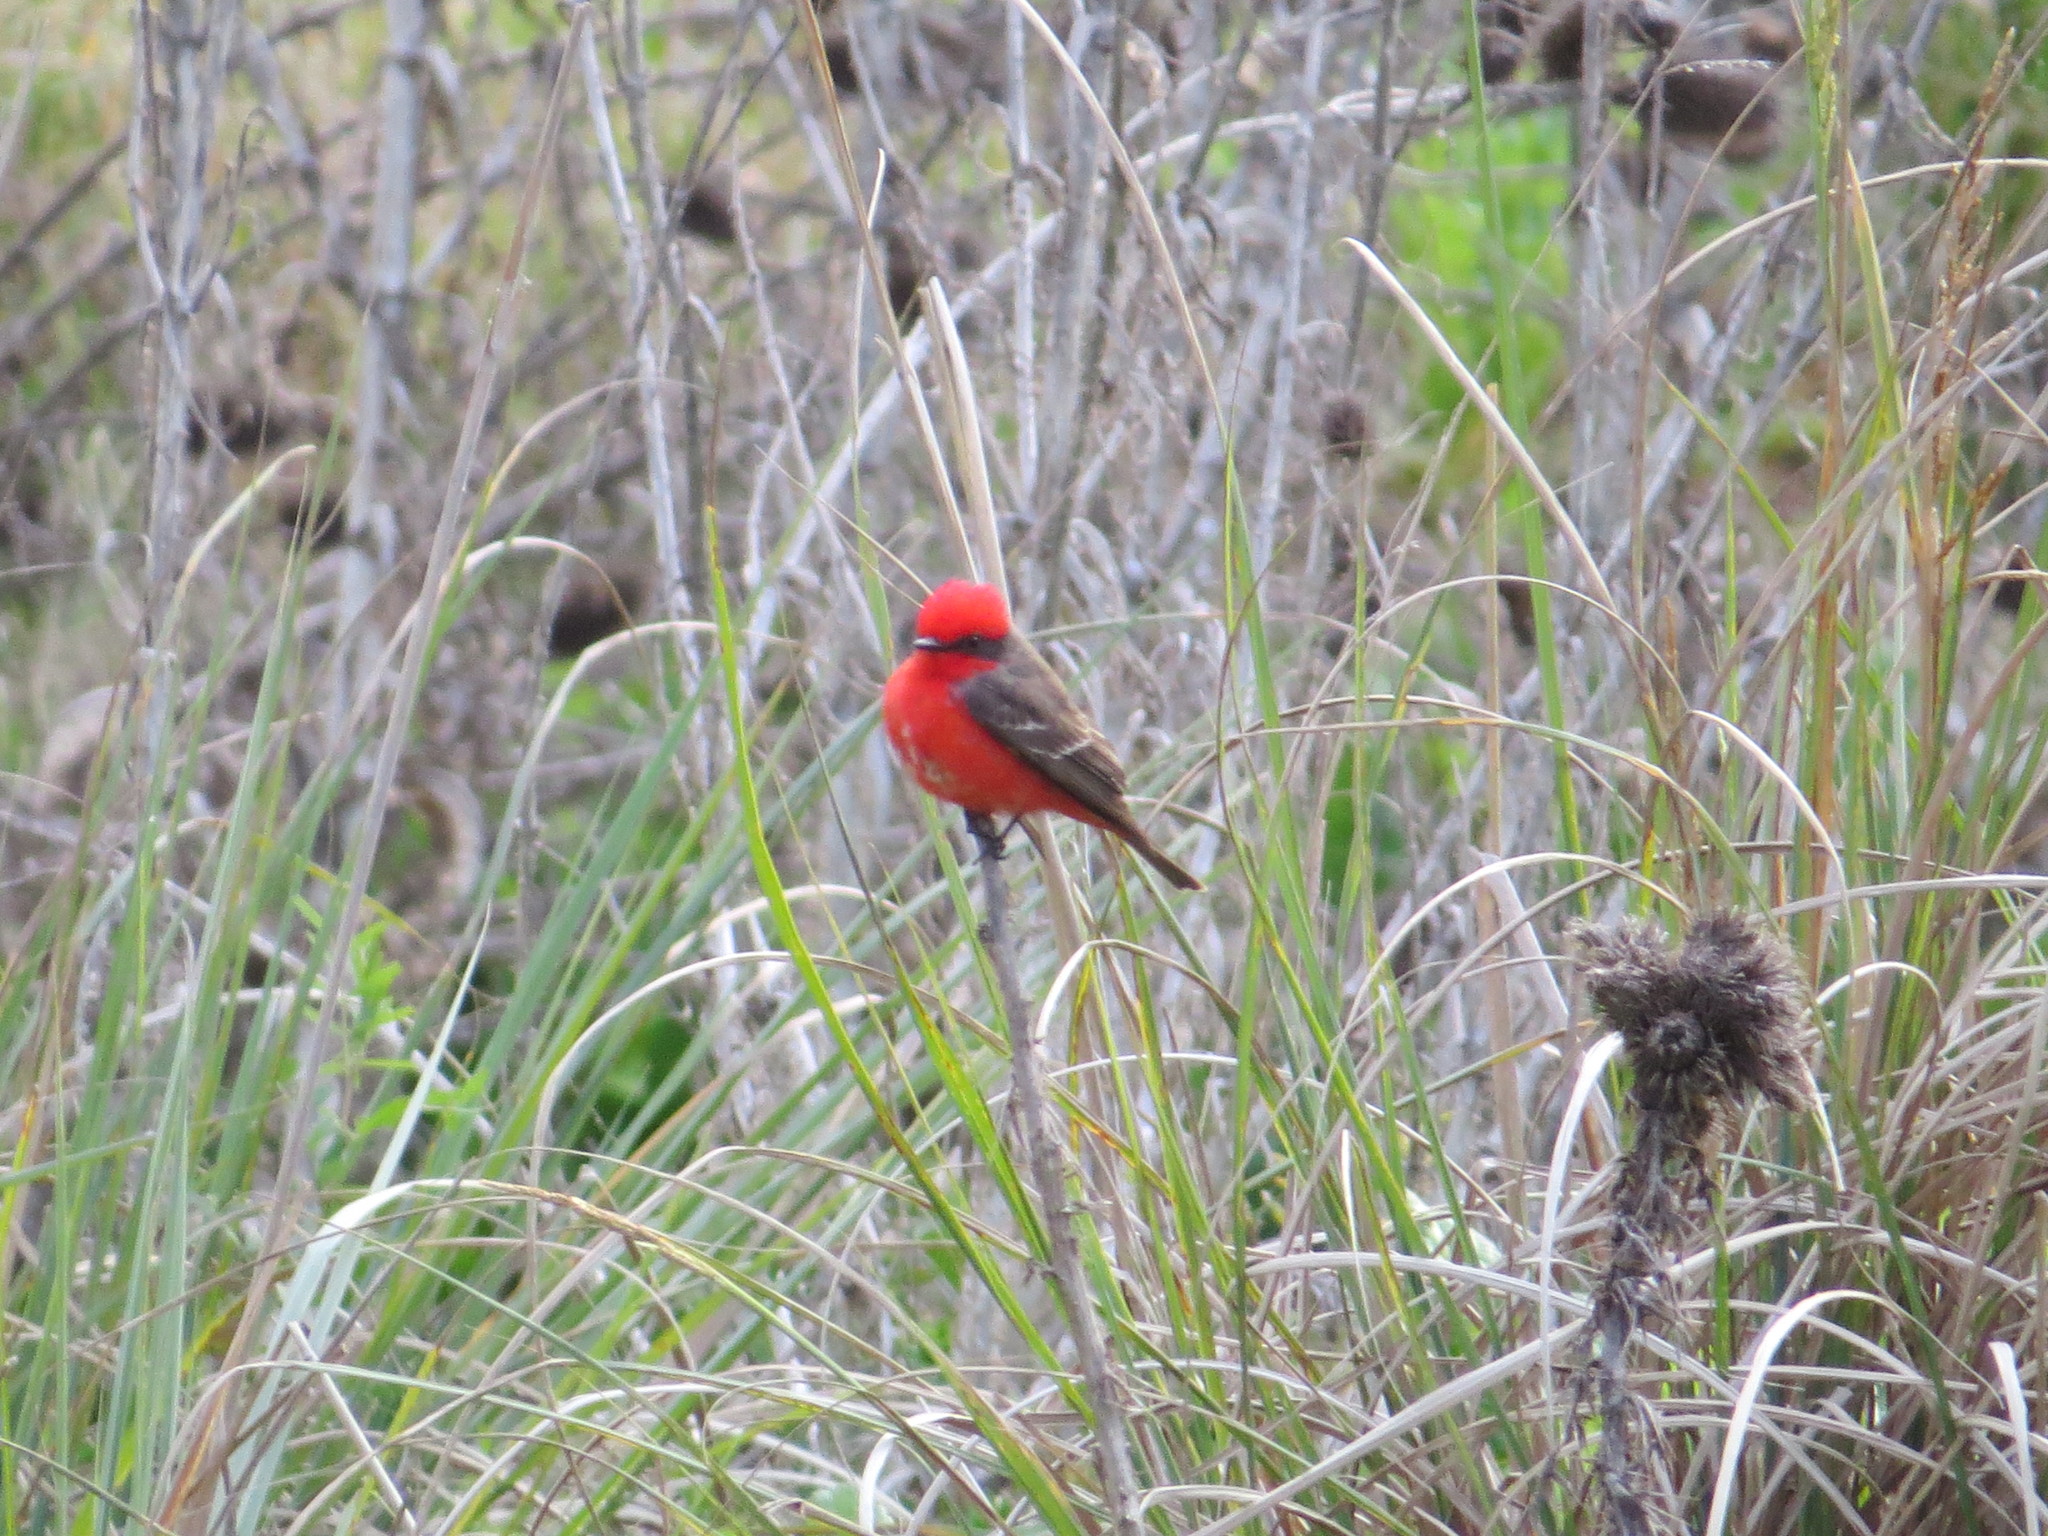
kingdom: Animalia
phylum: Chordata
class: Aves
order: Passeriformes
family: Tyrannidae
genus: Pyrocephalus
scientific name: Pyrocephalus rubinus
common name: Vermilion flycatcher
